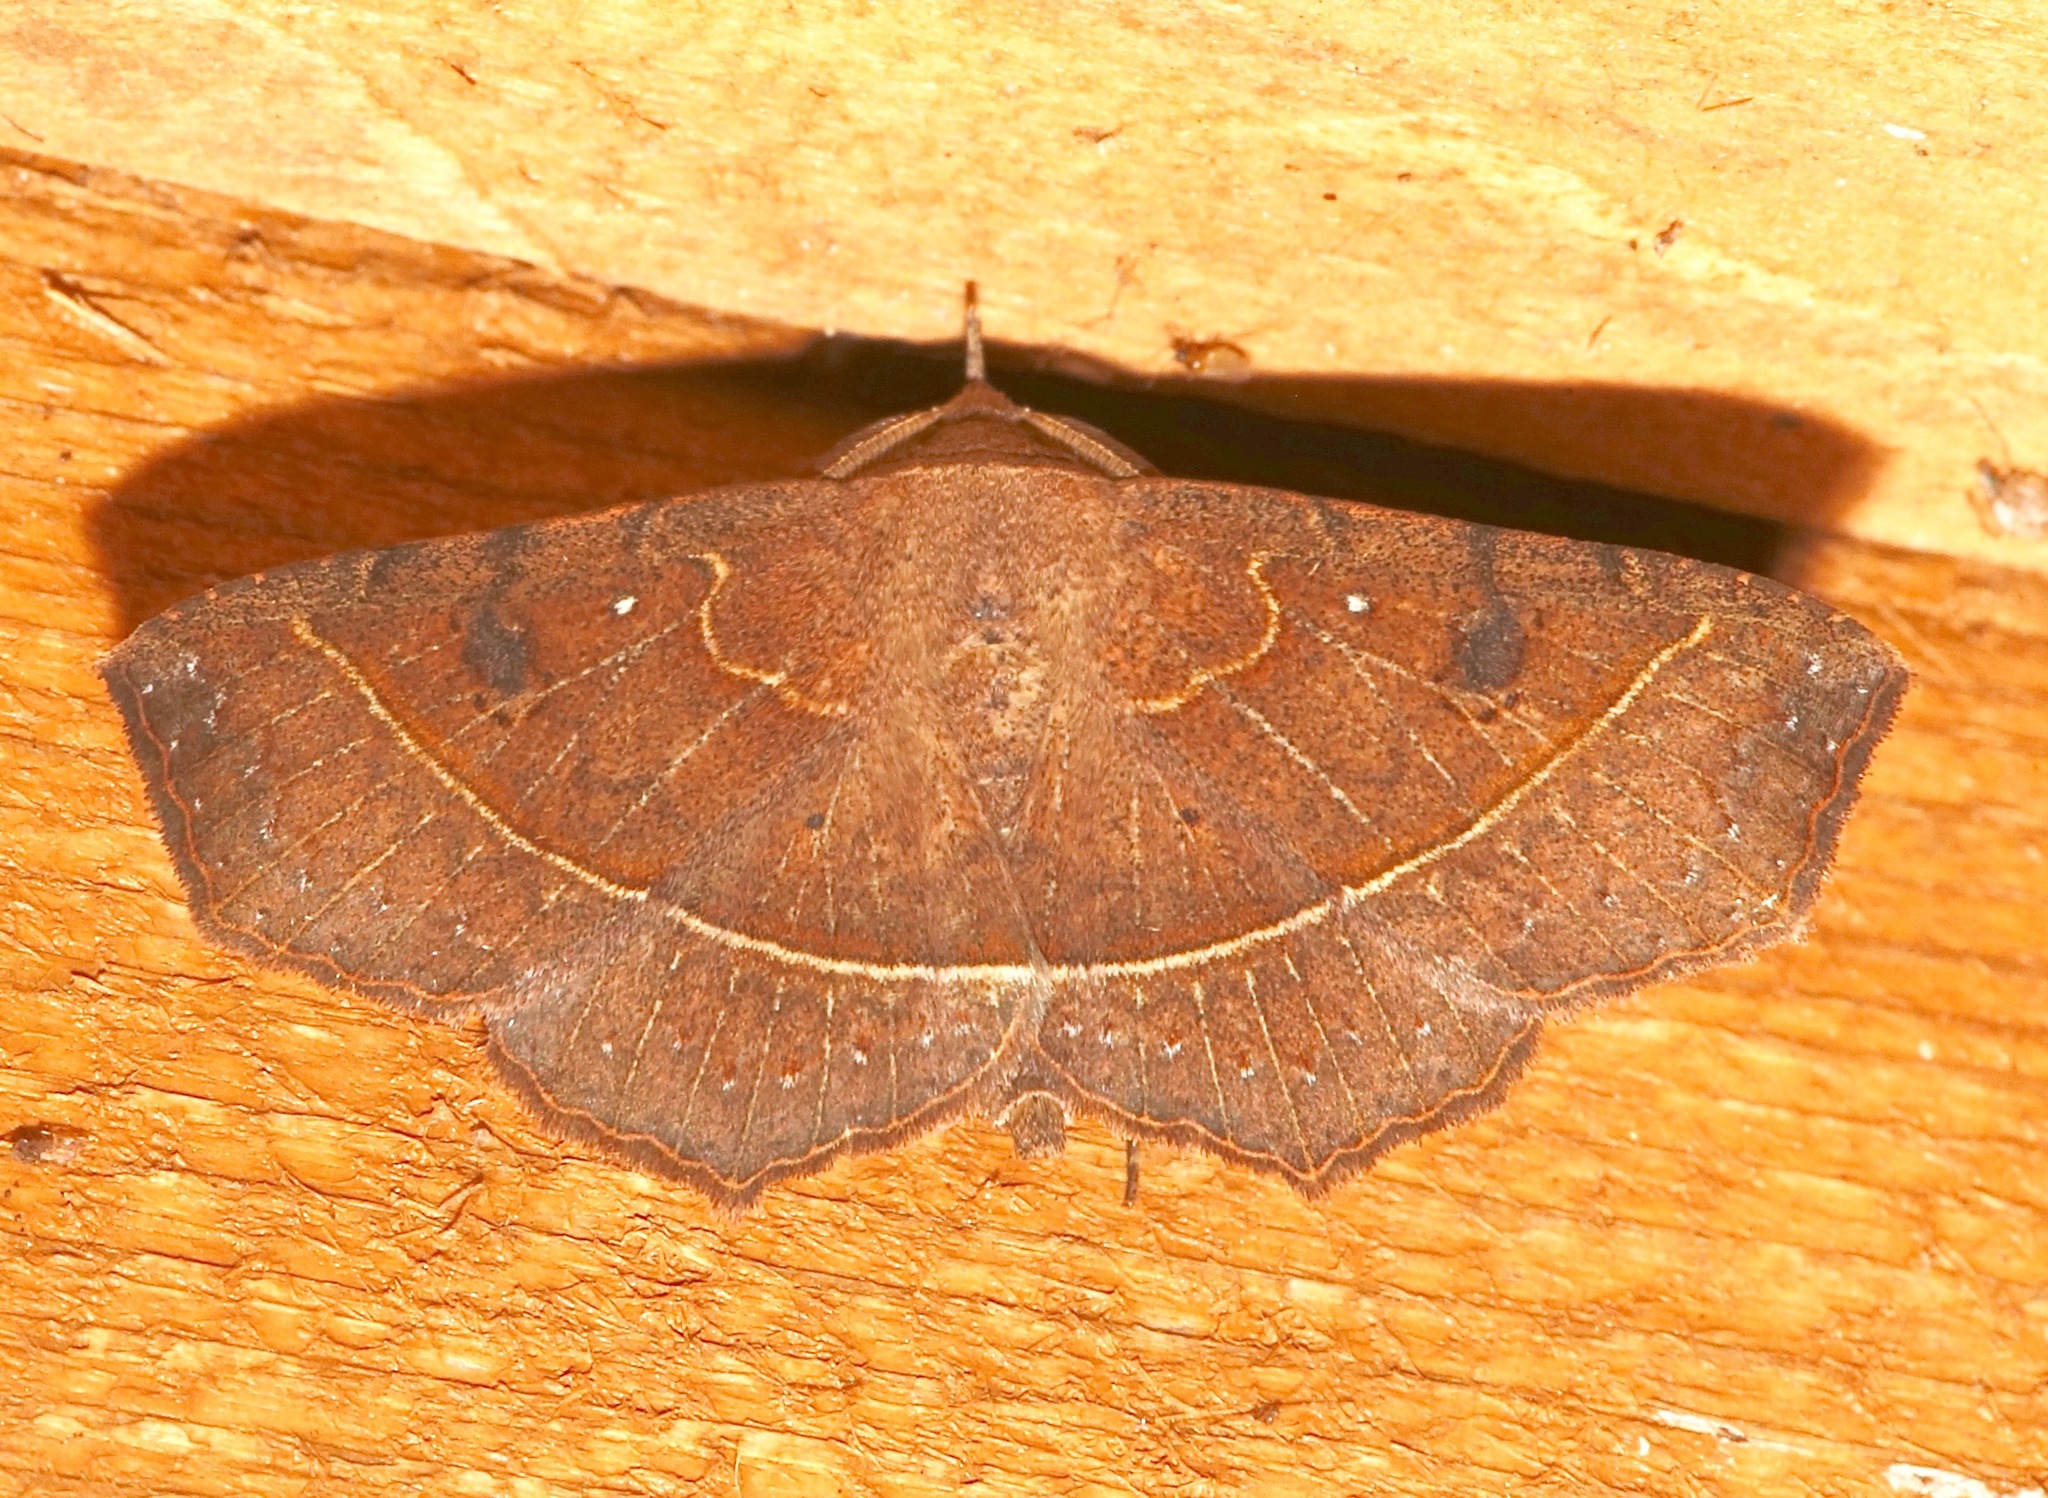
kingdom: Animalia
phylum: Arthropoda
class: Insecta
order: Lepidoptera
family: Erebidae
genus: Ephyrodes
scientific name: Ephyrodes cacata
